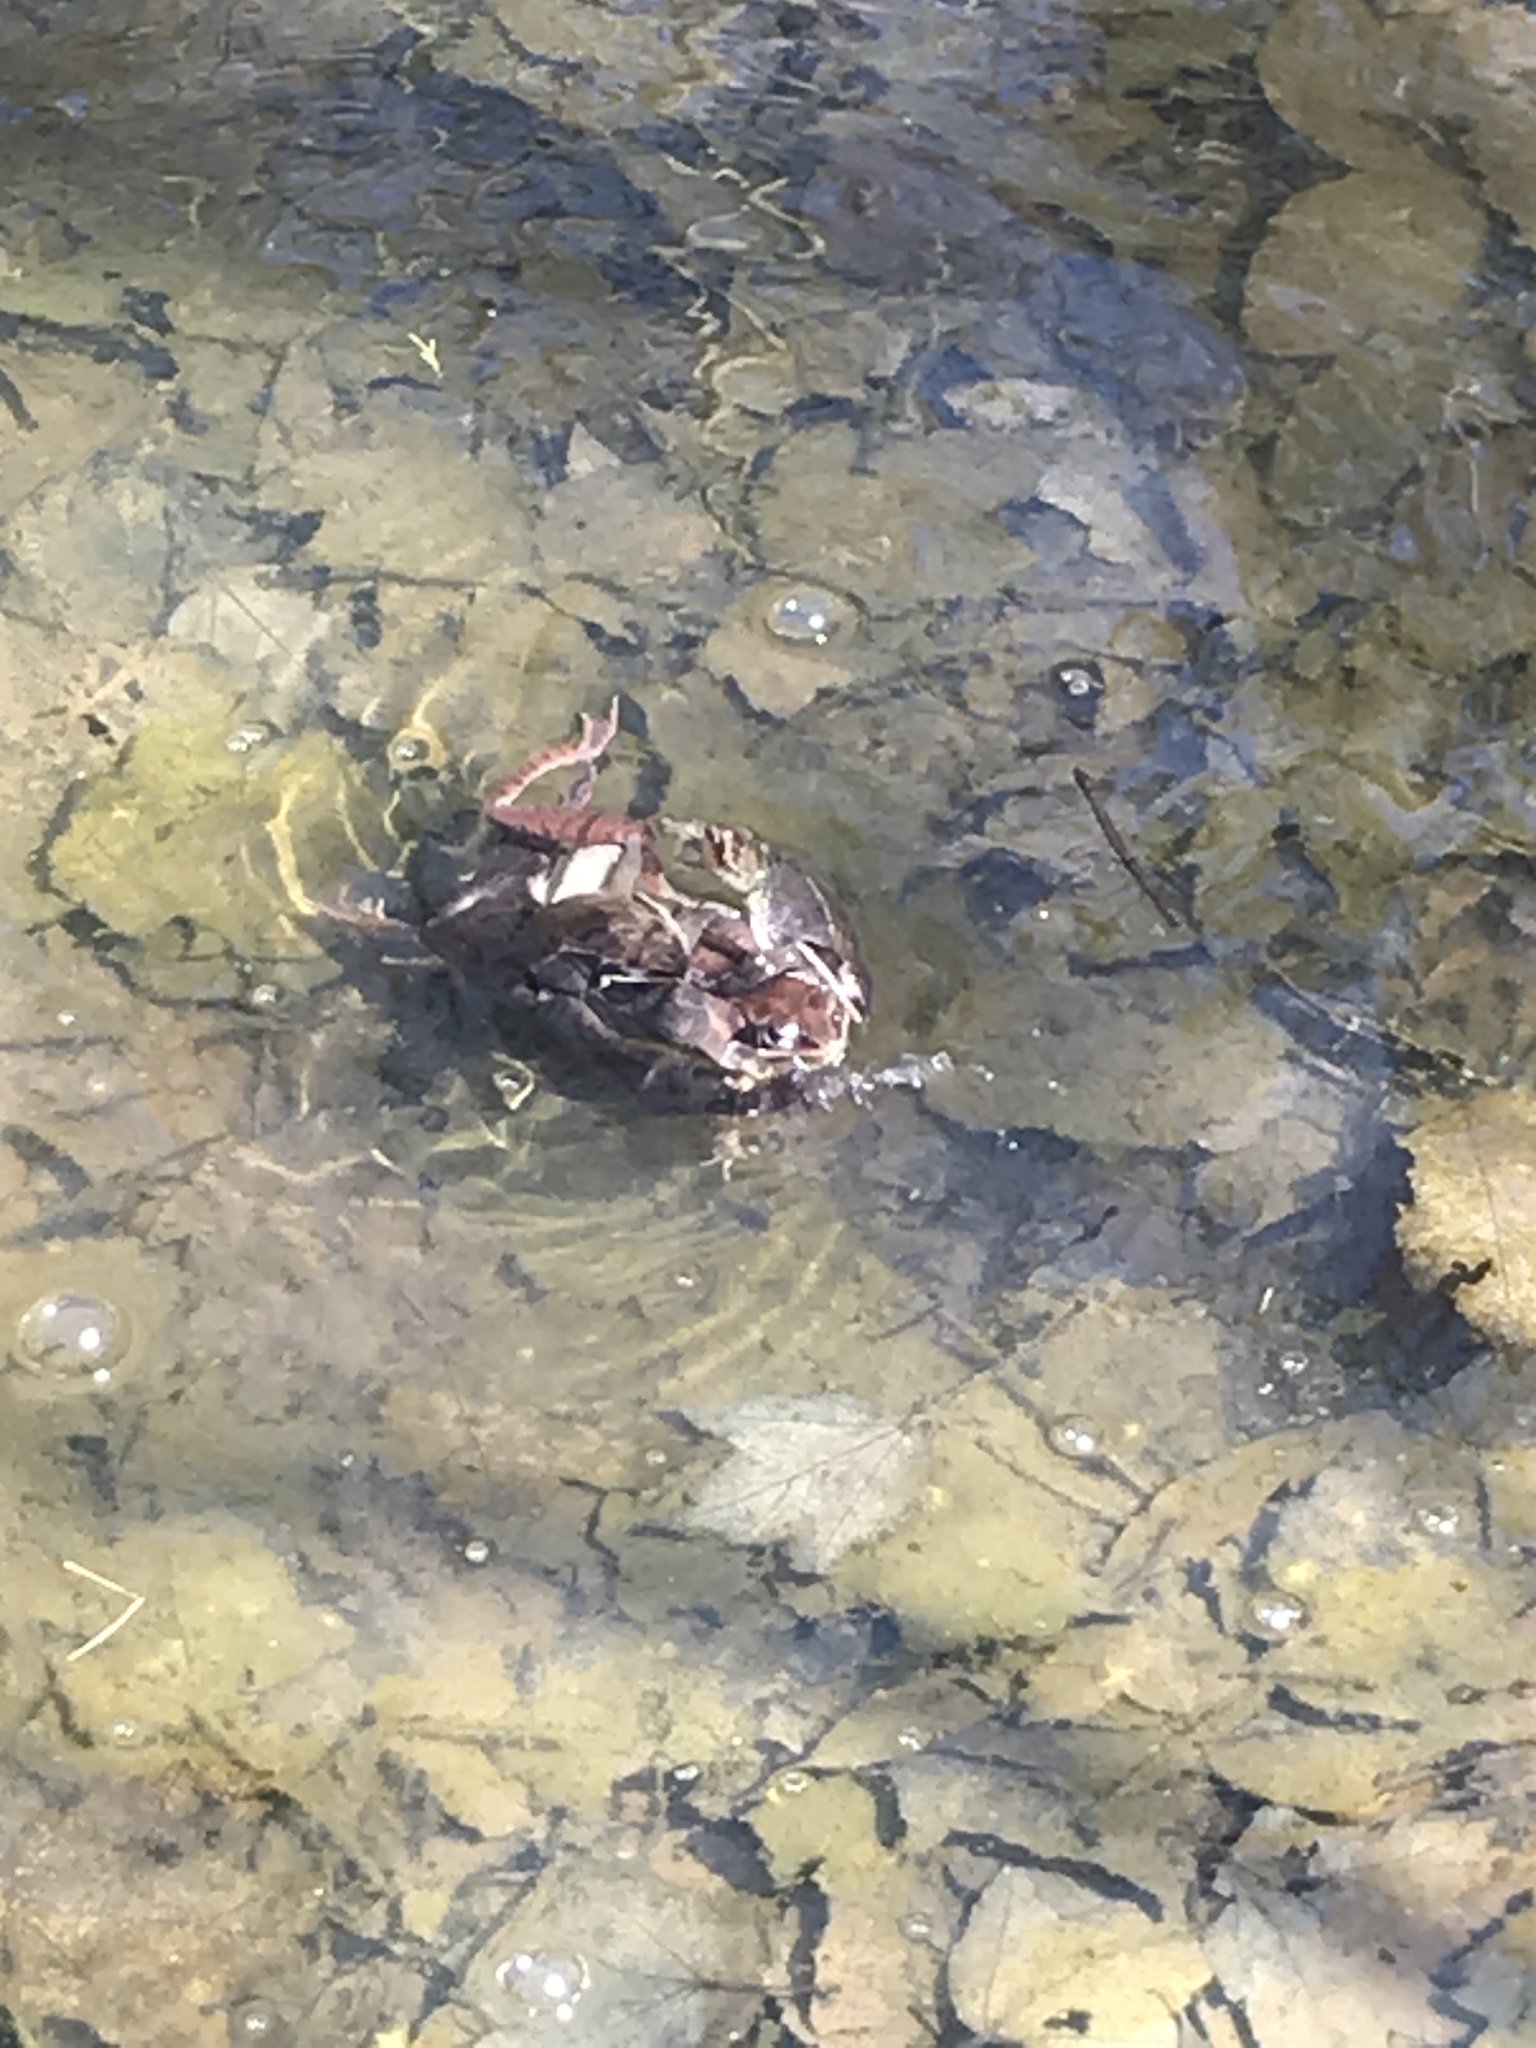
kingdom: Animalia
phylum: Chordata
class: Amphibia
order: Anura
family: Ranidae
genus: Lithobates
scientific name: Lithobates sylvaticus
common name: Wood frog
